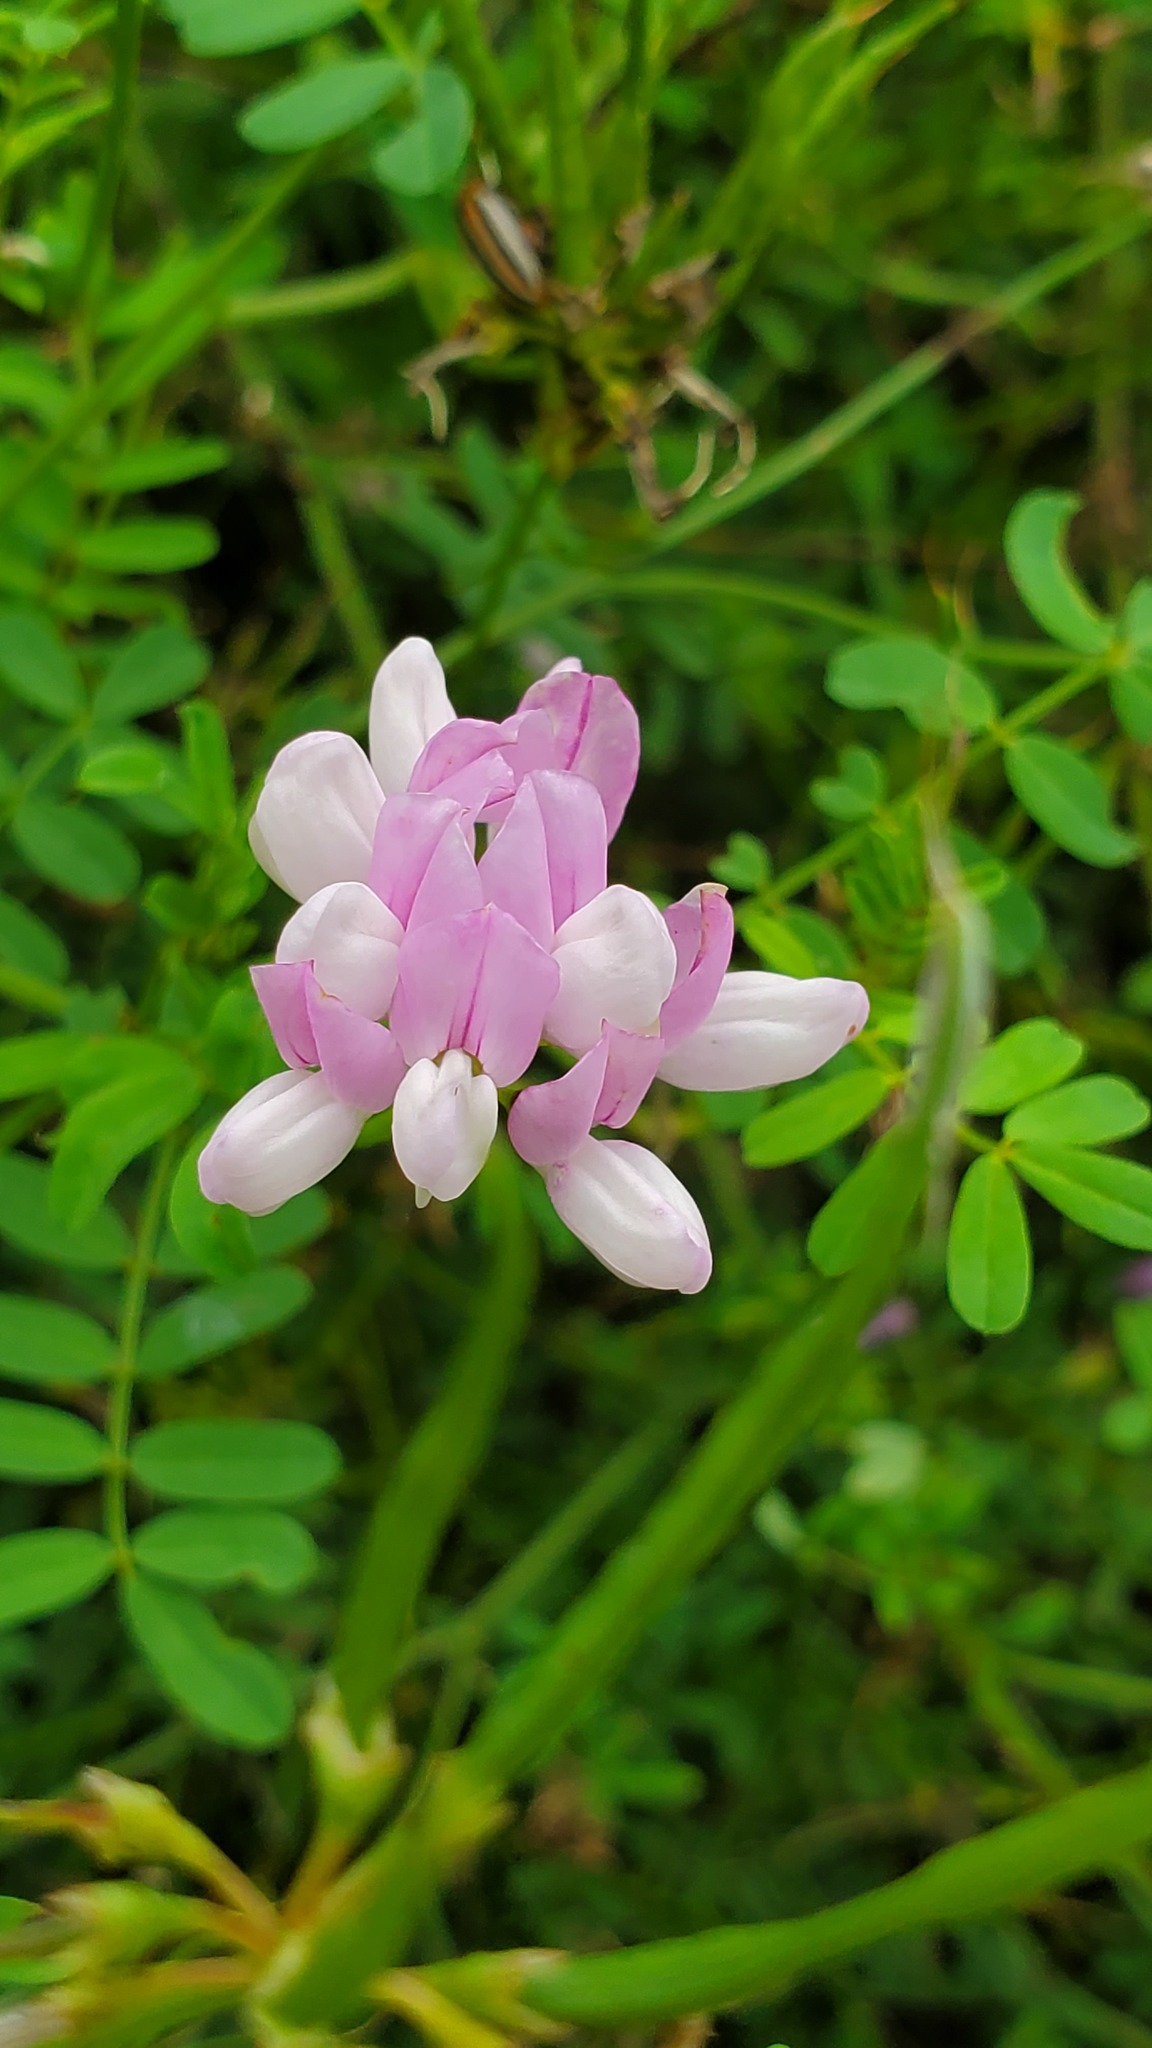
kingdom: Plantae
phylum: Tracheophyta
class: Magnoliopsida
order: Fabales
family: Fabaceae
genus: Coronilla
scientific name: Coronilla varia
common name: Crownvetch
